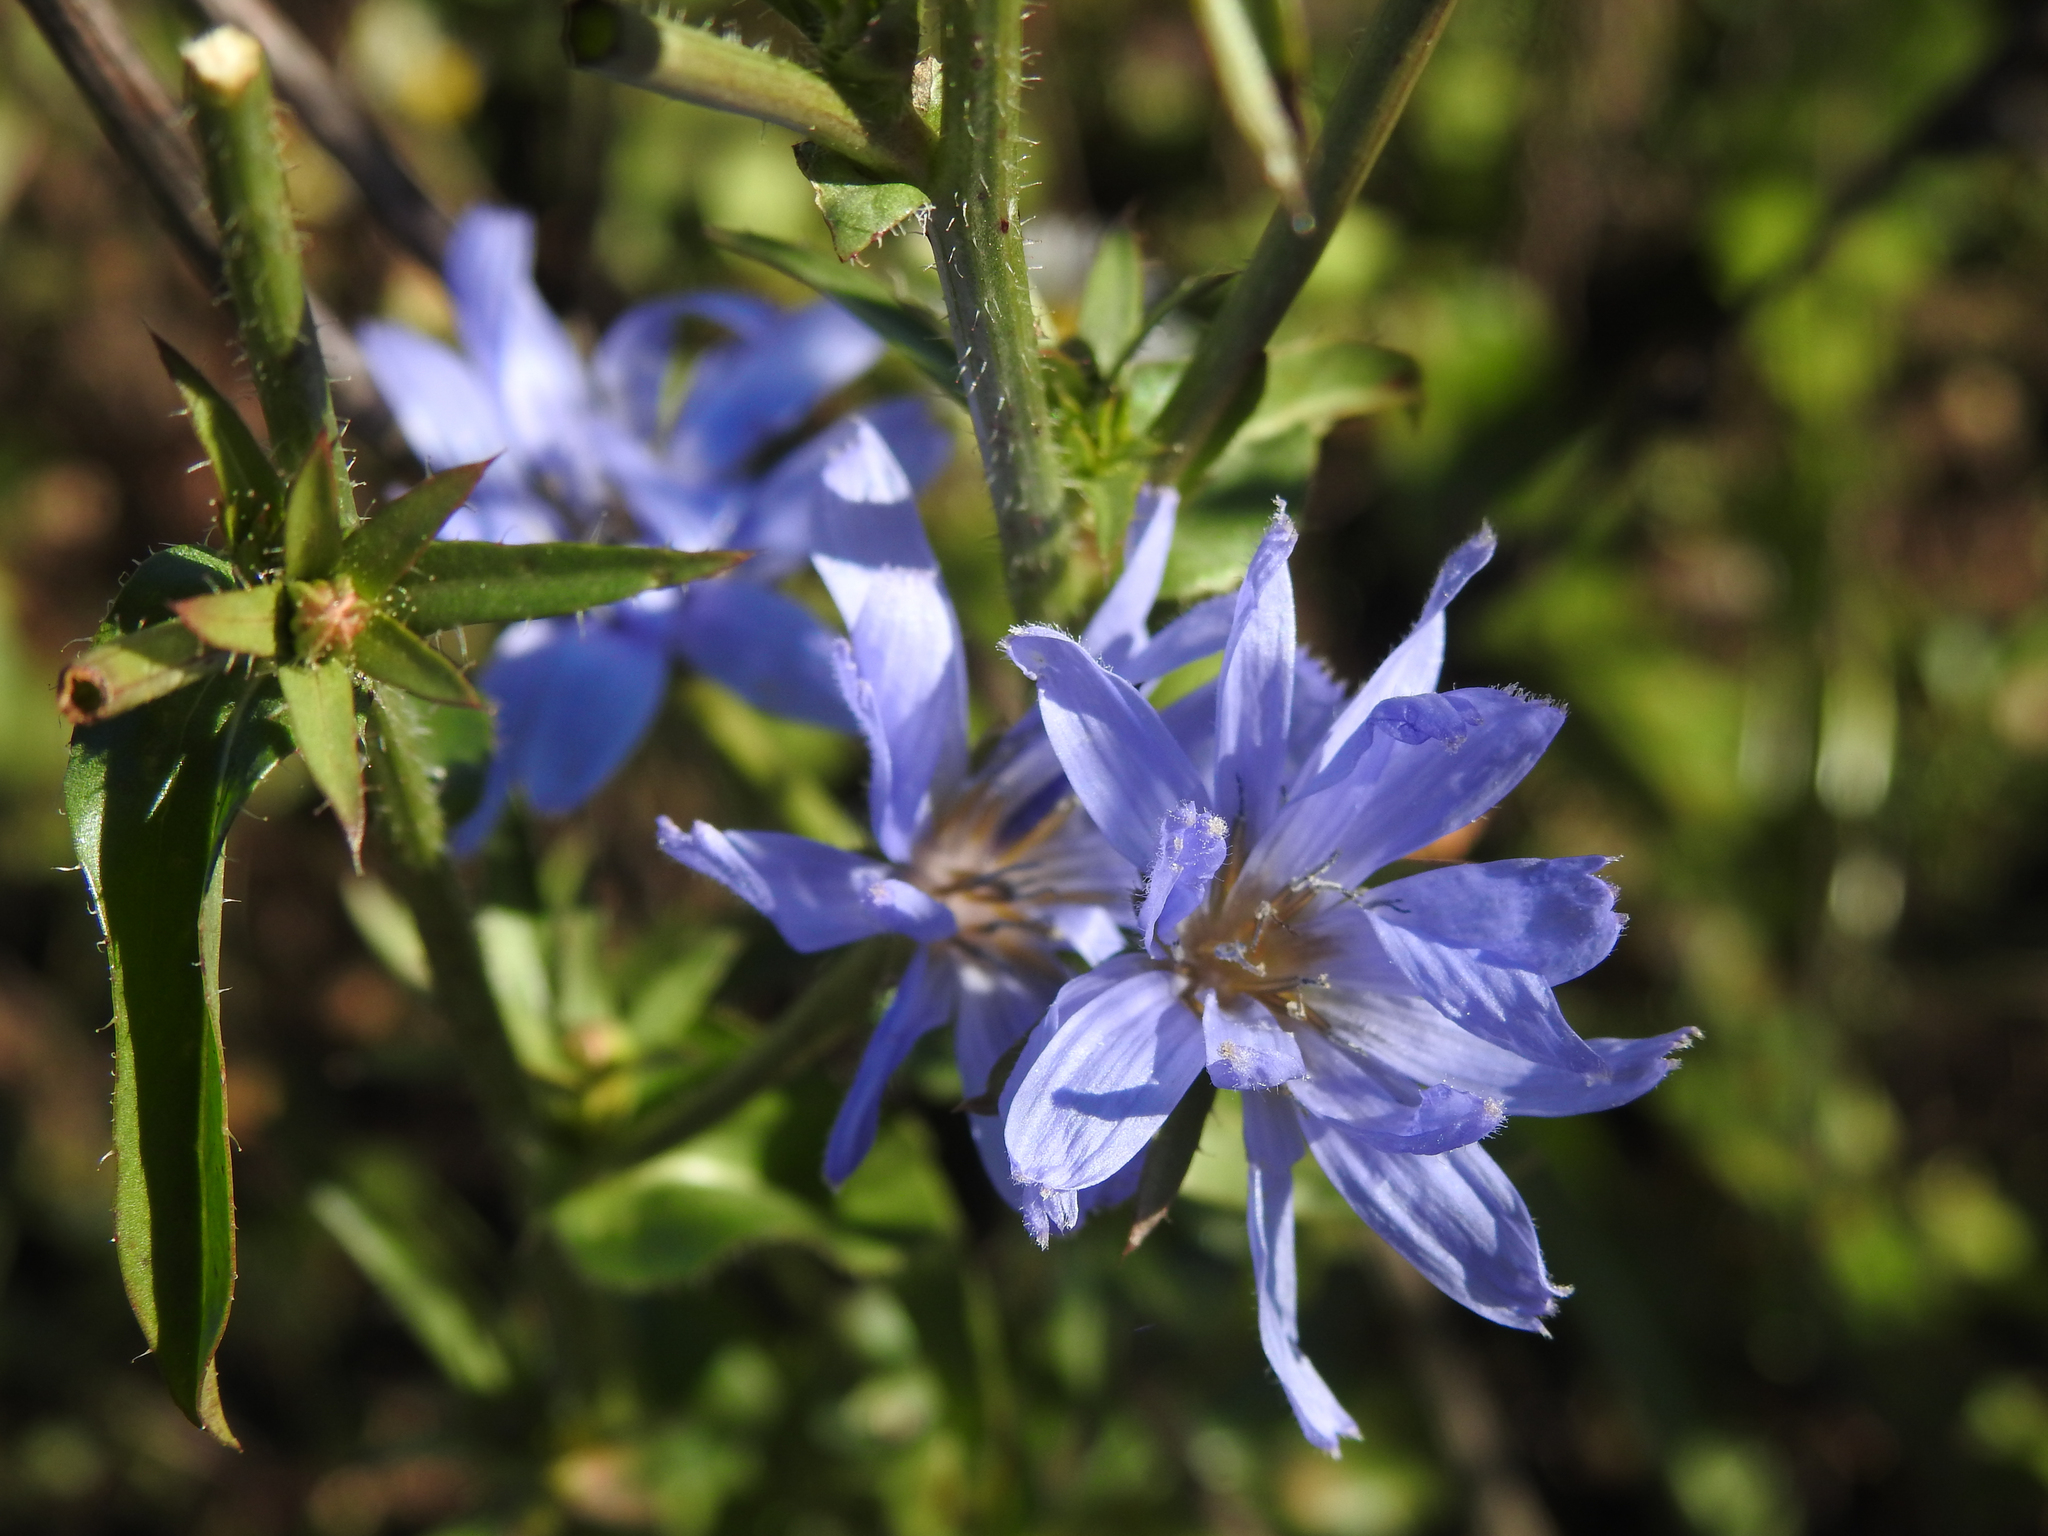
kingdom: Plantae
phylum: Tracheophyta
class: Magnoliopsida
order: Asterales
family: Asteraceae
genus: Cichorium
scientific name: Cichorium intybus
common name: Chicory
